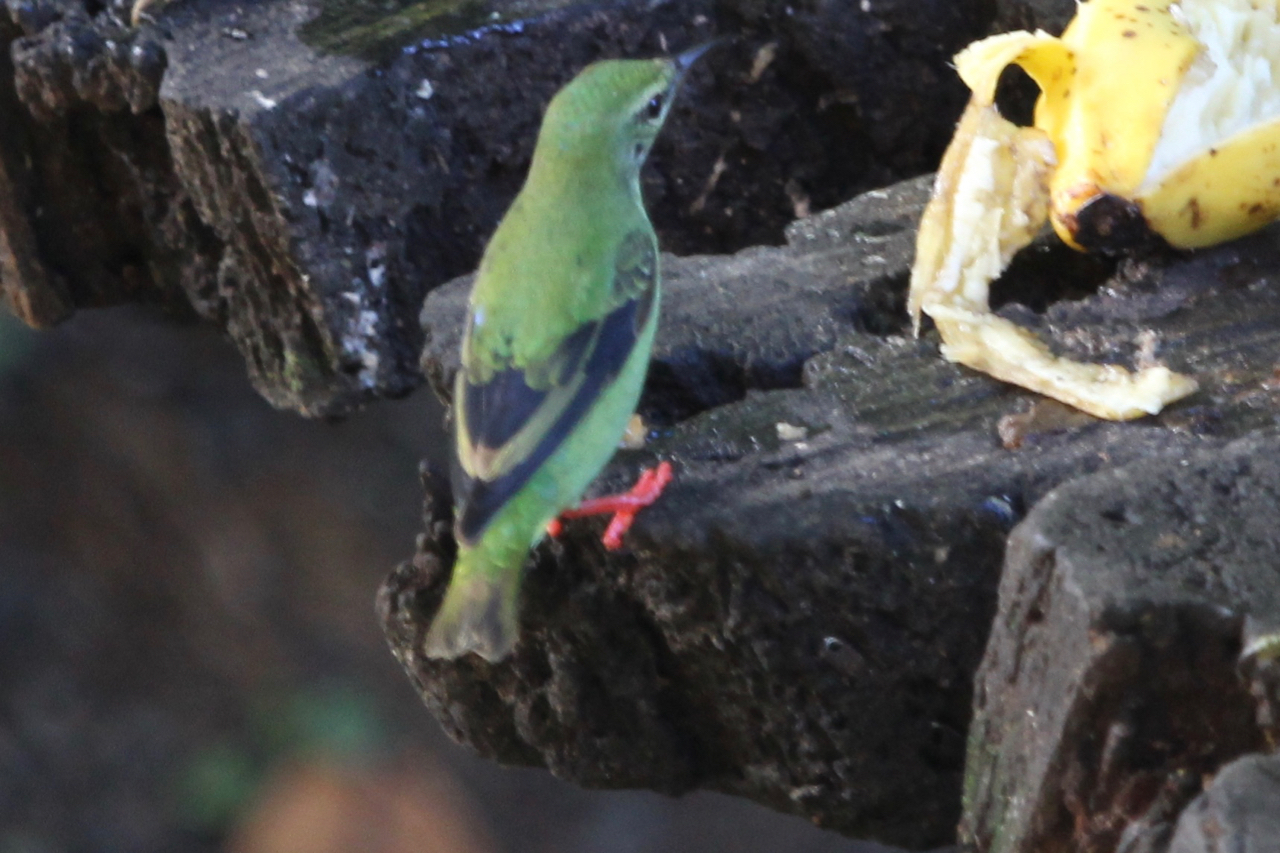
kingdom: Animalia
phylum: Chordata
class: Aves
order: Passeriformes
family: Thraupidae
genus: Cyanerpes
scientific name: Cyanerpes cyaneus
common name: Red-legged honeycreeper
